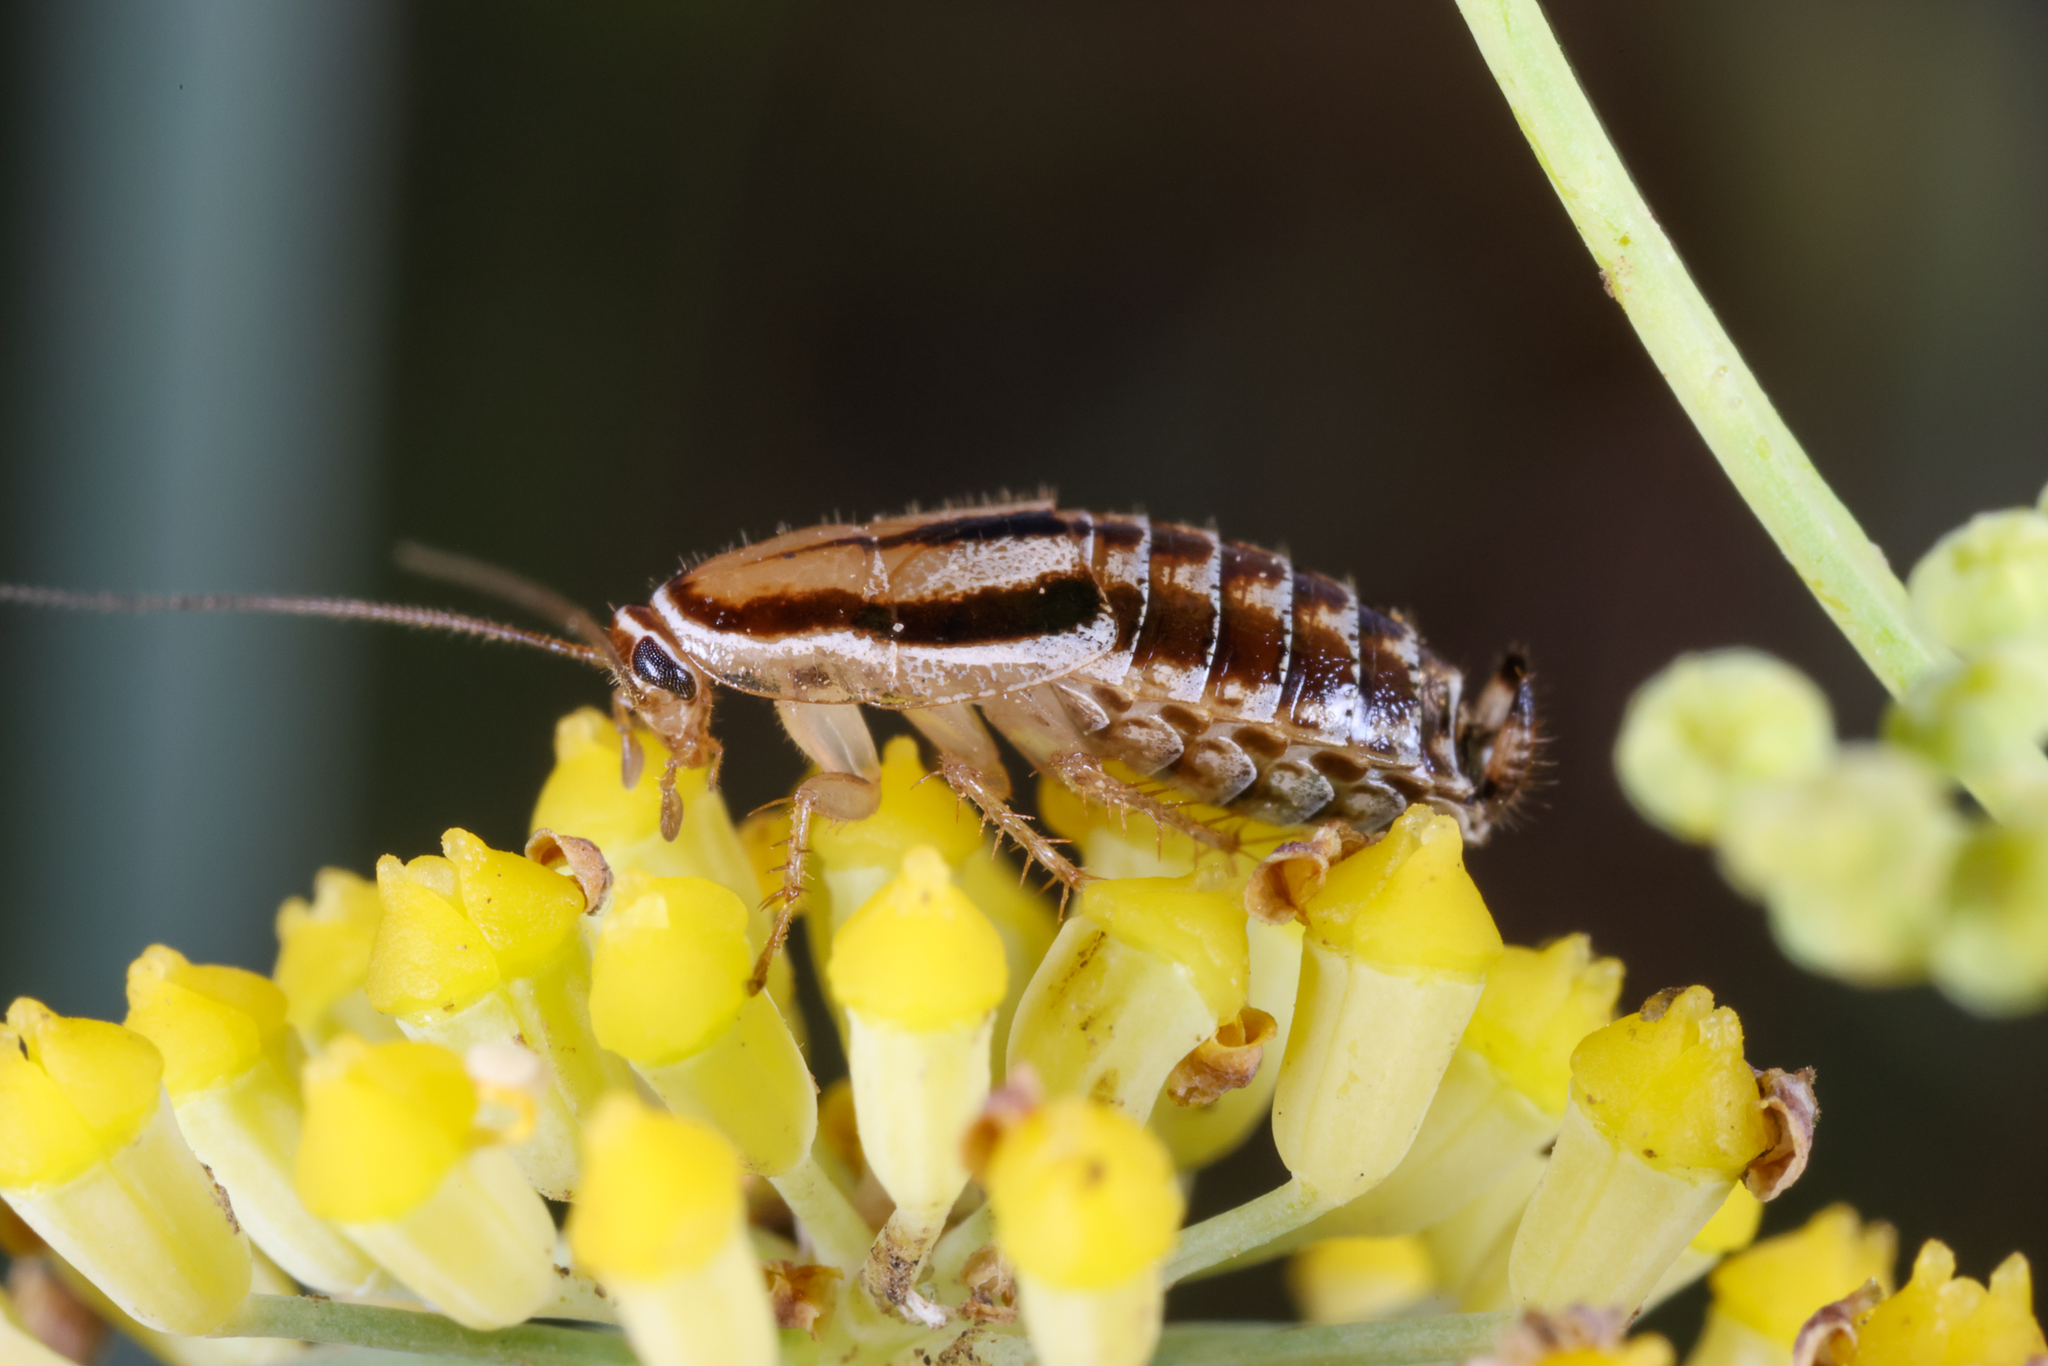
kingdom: Animalia
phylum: Arthropoda
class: Insecta
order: Blattodea
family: Ectobiidae
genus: Luridiblatta
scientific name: Luridiblatta trivittata
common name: Three-lined cockroach
